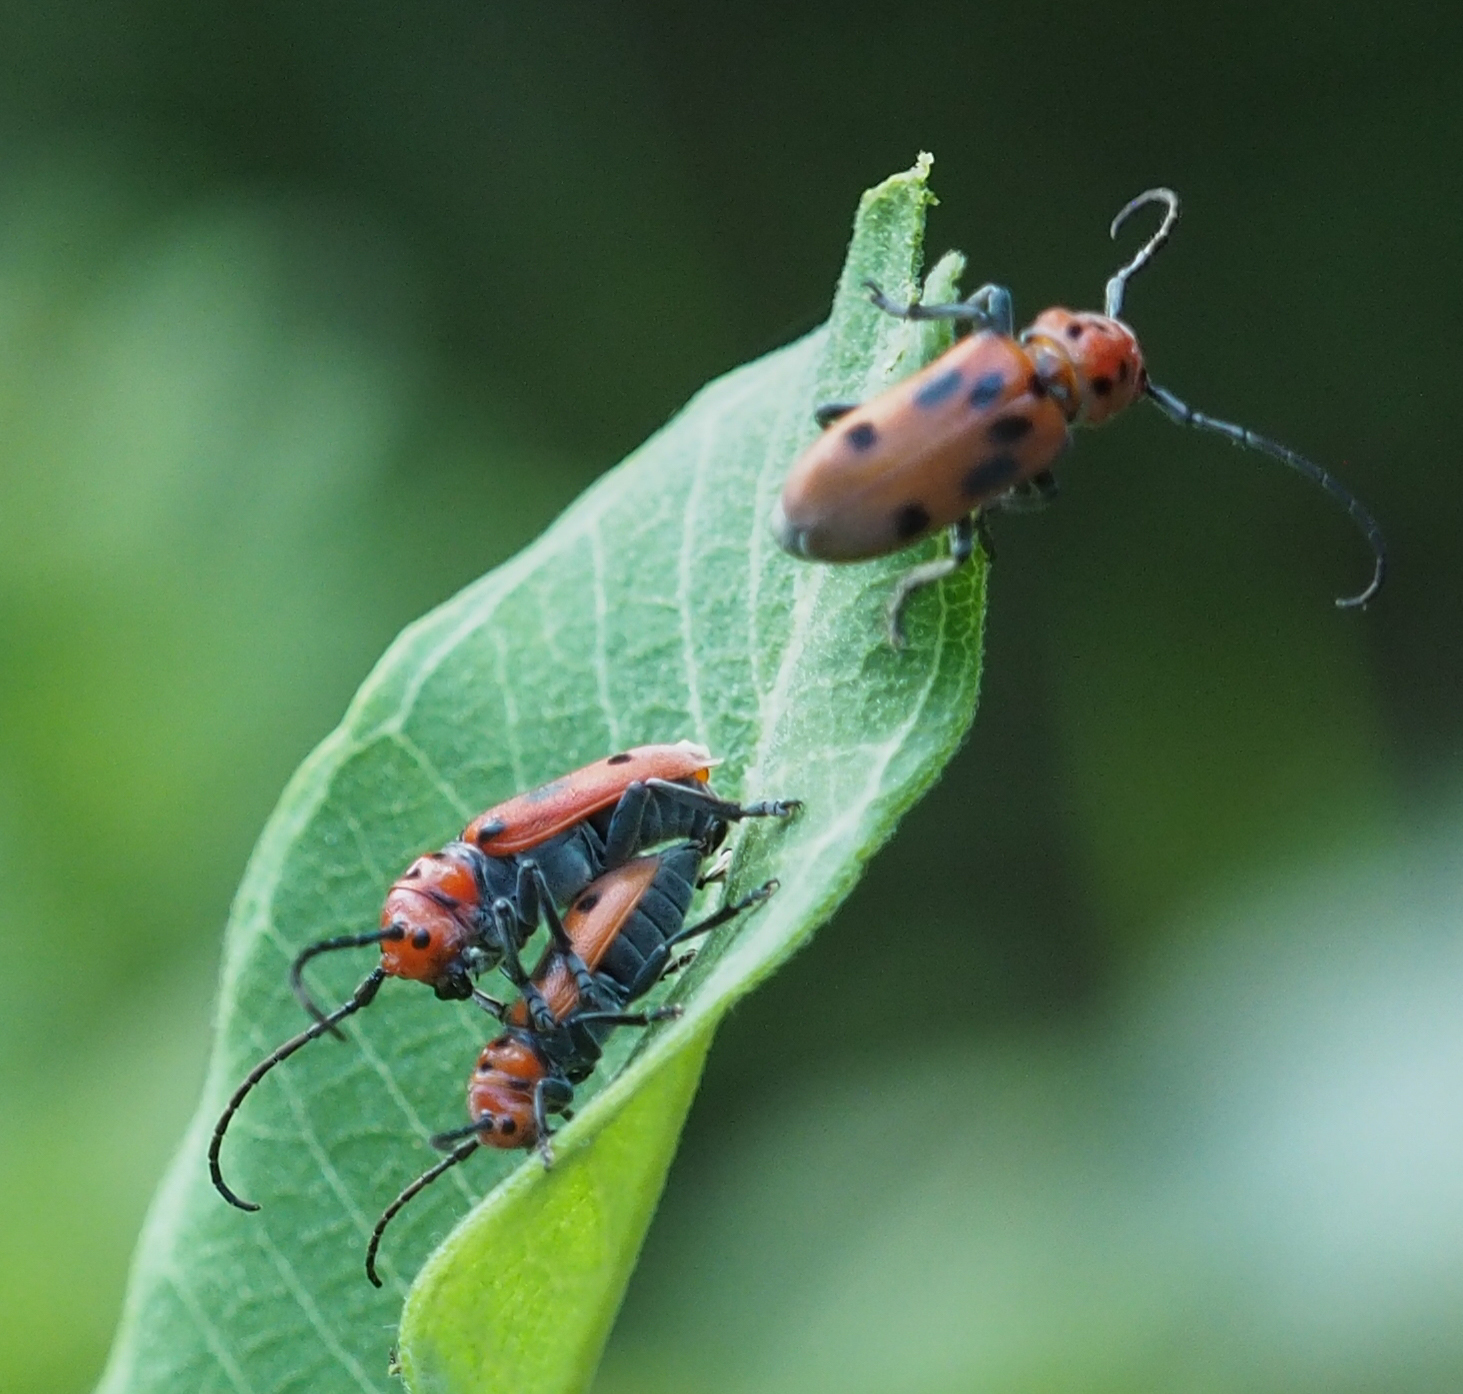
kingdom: Animalia
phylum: Arthropoda
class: Insecta
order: Coleoptera
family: Cerambycidae
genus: Tetraopes
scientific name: Tetraopes tetrophthalmus
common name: Red milkweed beetle
